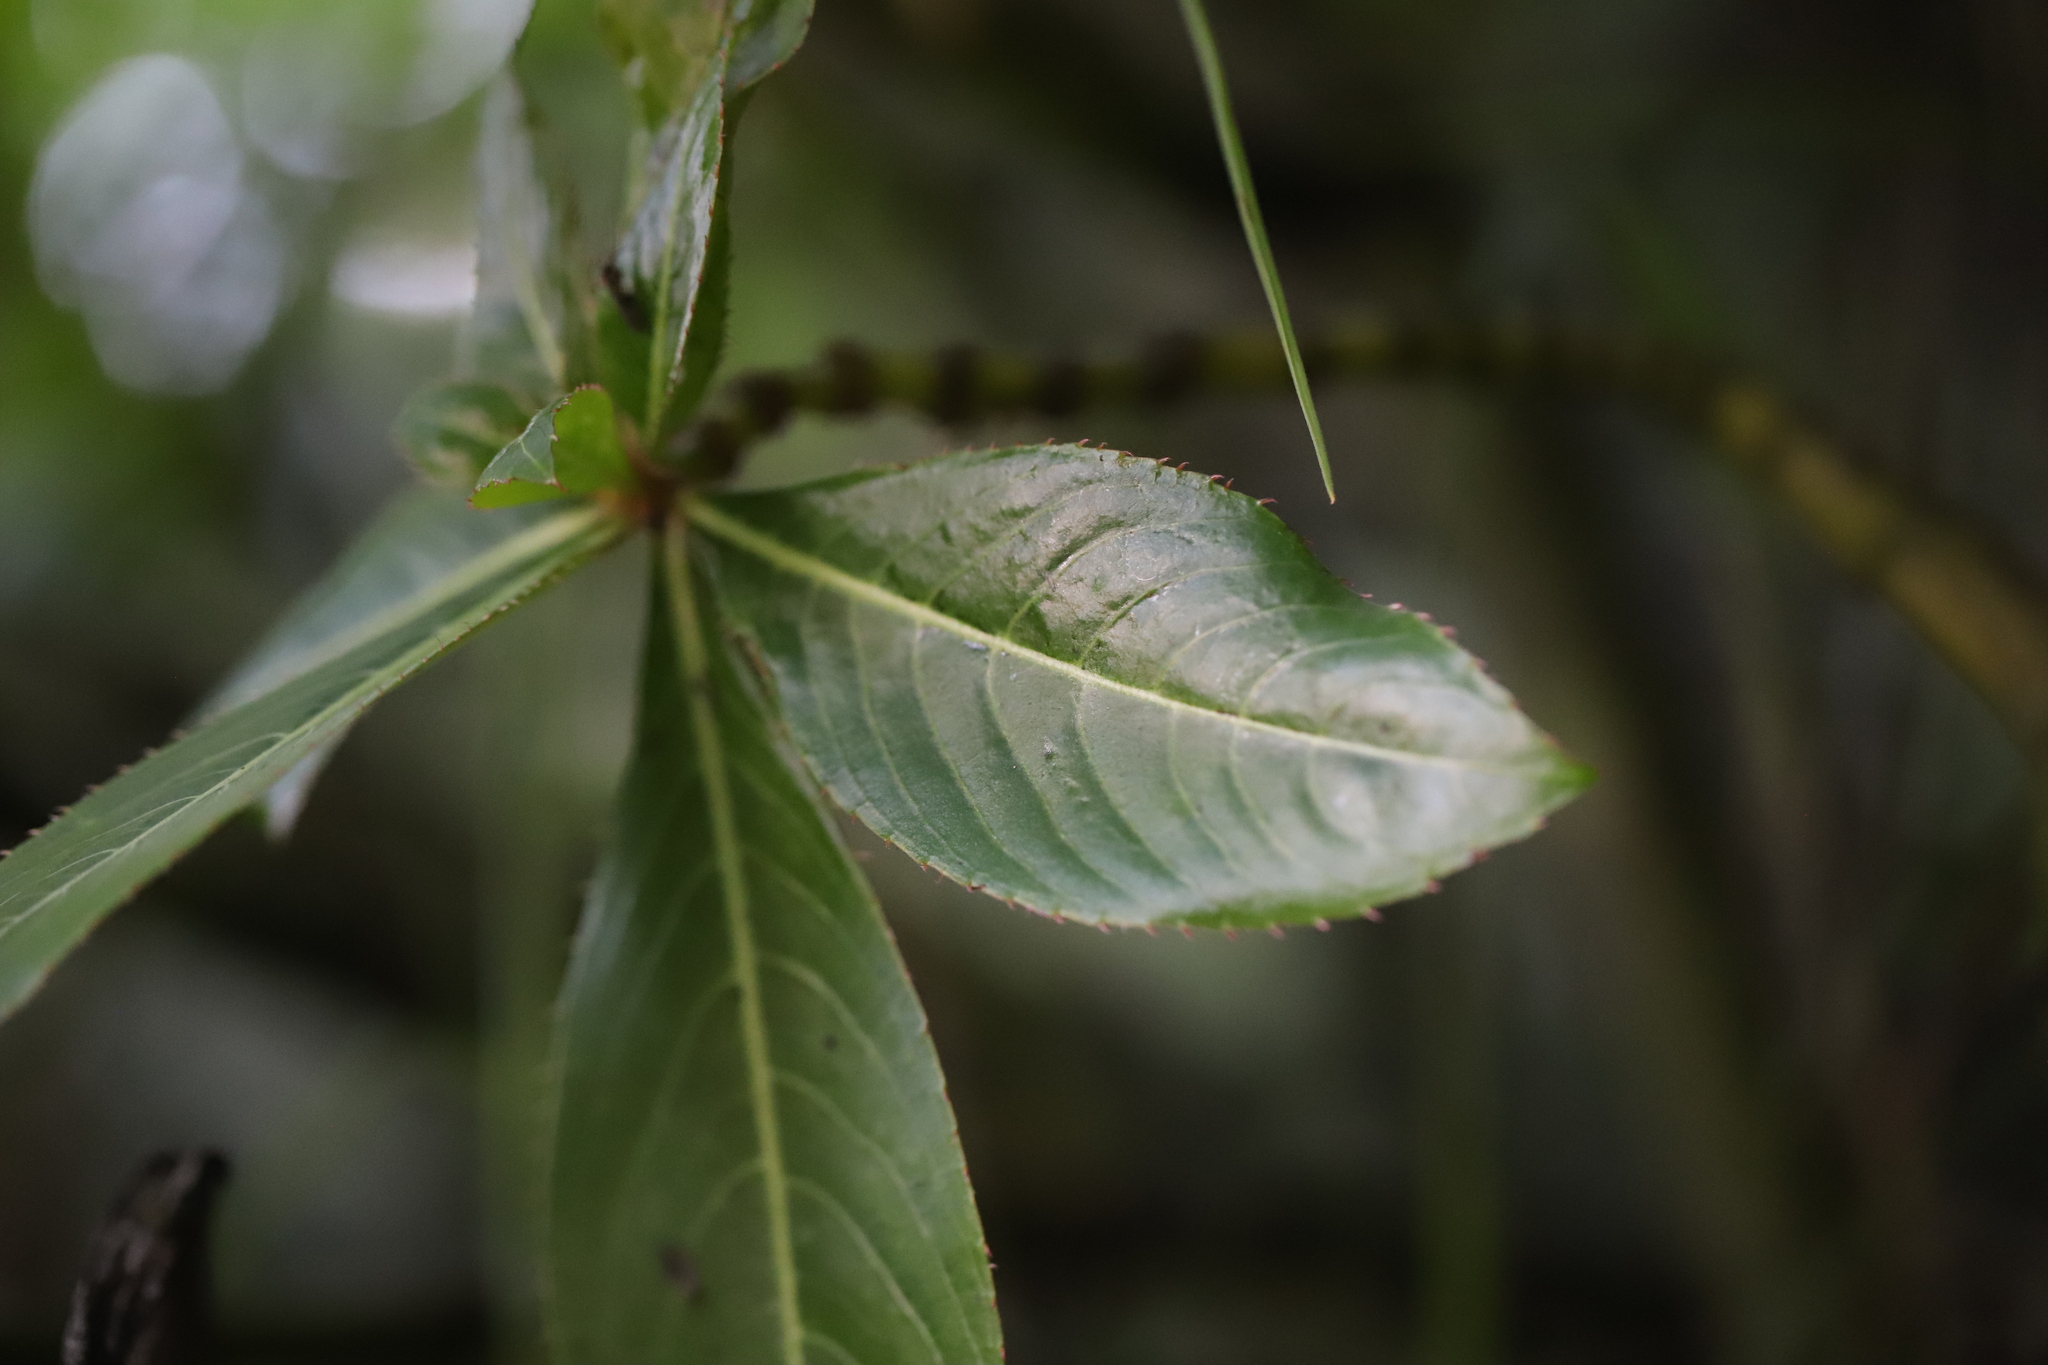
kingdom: Plantae
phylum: Tracheophyta
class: Magnoliopsida
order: Ericales
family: Balsaminaceae
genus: Impatiens
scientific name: Impatiens sodenii
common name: Oliver's touch-me-not
